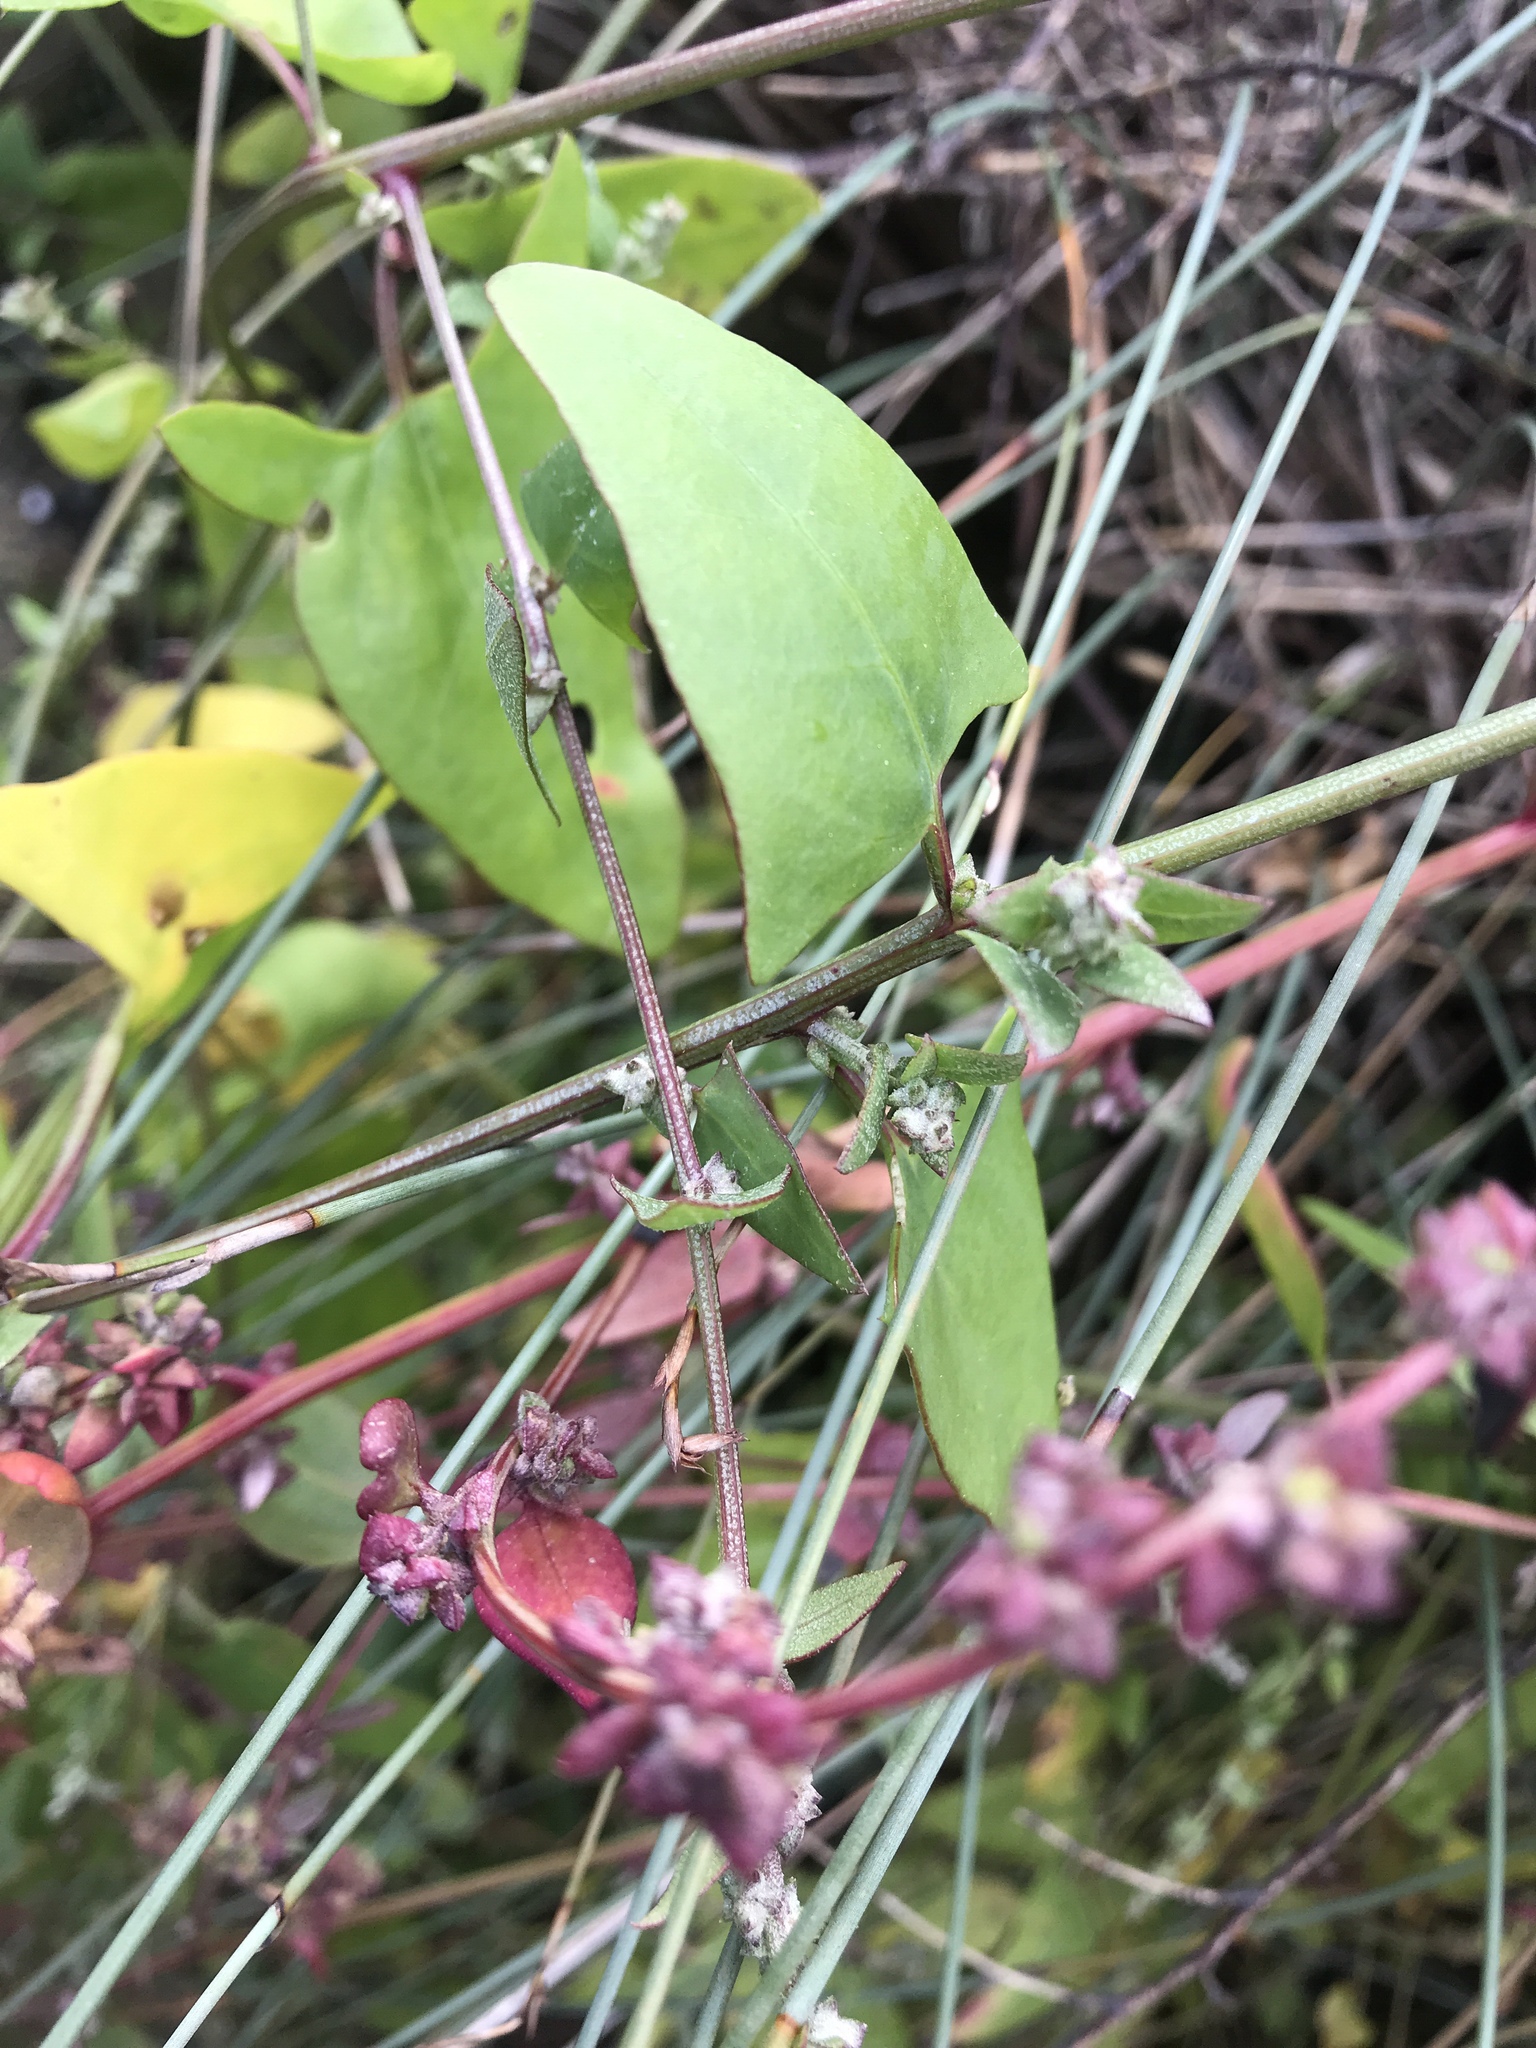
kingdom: Plantae
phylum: Tracheophyta
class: Magnoliopsida
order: Caryophyllales
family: Polygonaceae
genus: Rumex
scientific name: Rumex sagittatus
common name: Climbing dock
